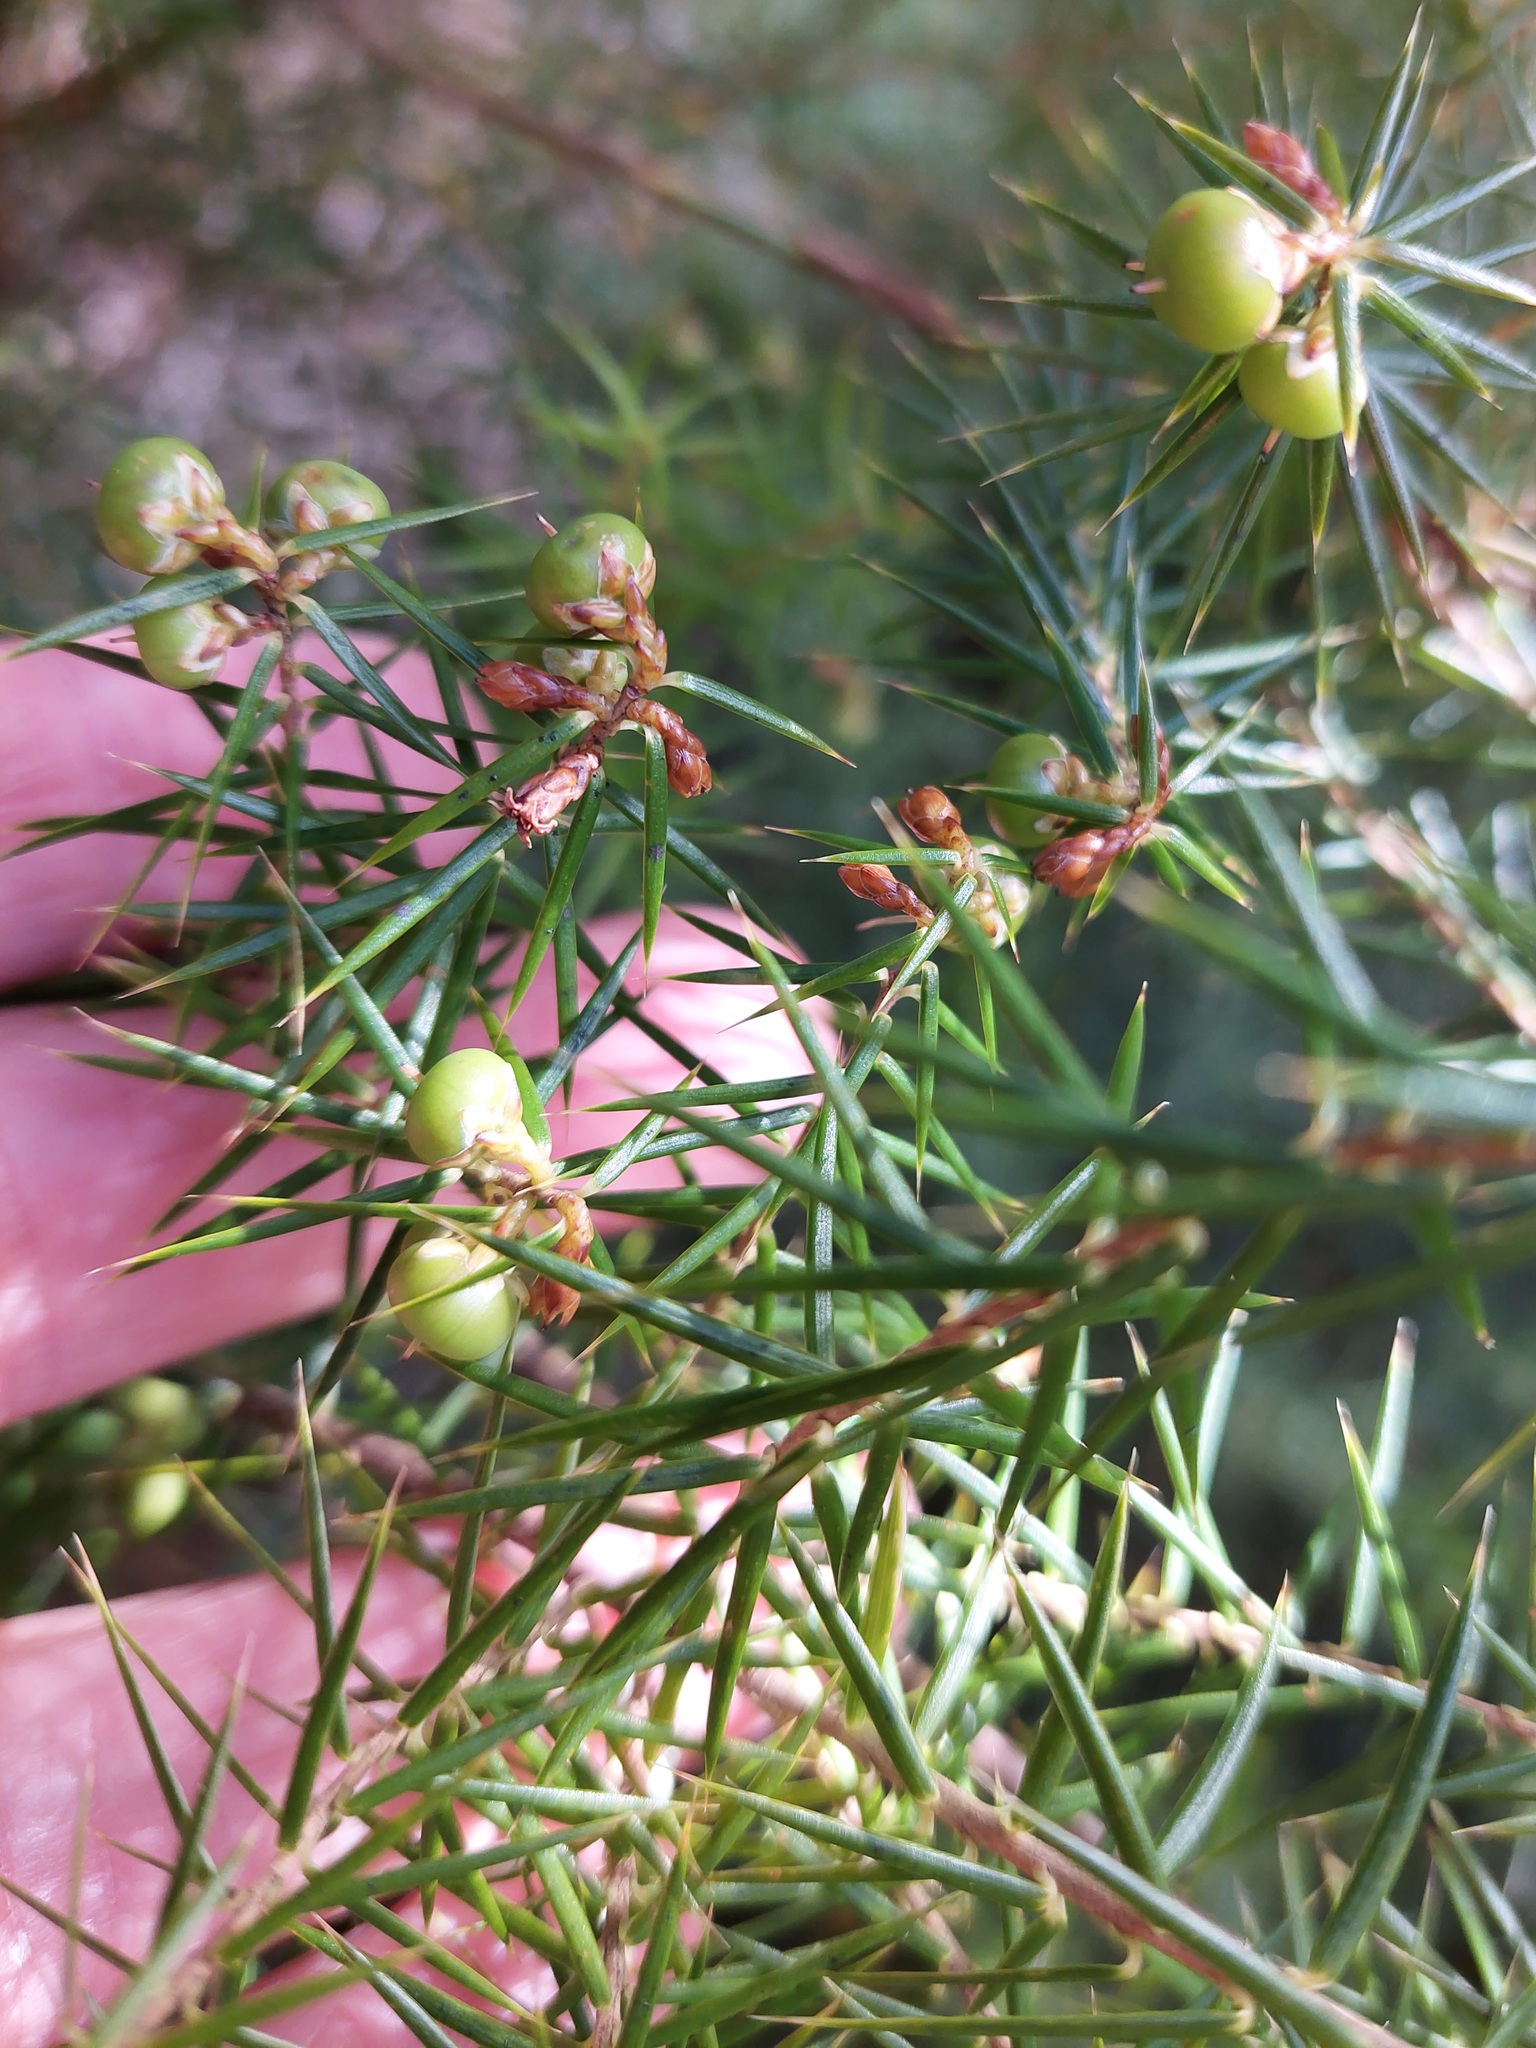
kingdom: Plantae
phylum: Tracheophyta
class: Magnoliopsida
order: Ericales
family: Ericaceae
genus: Leptecophylla
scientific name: Leptecophylla juniperina
